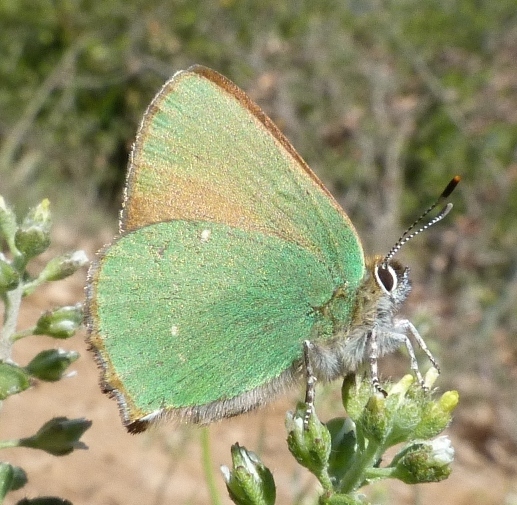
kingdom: Animalia
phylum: Arthropoda
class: Insecta
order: Lepidoptera
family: Lycaenidae
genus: Callophrys
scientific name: Callophrys rubi
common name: Green hairstreak
